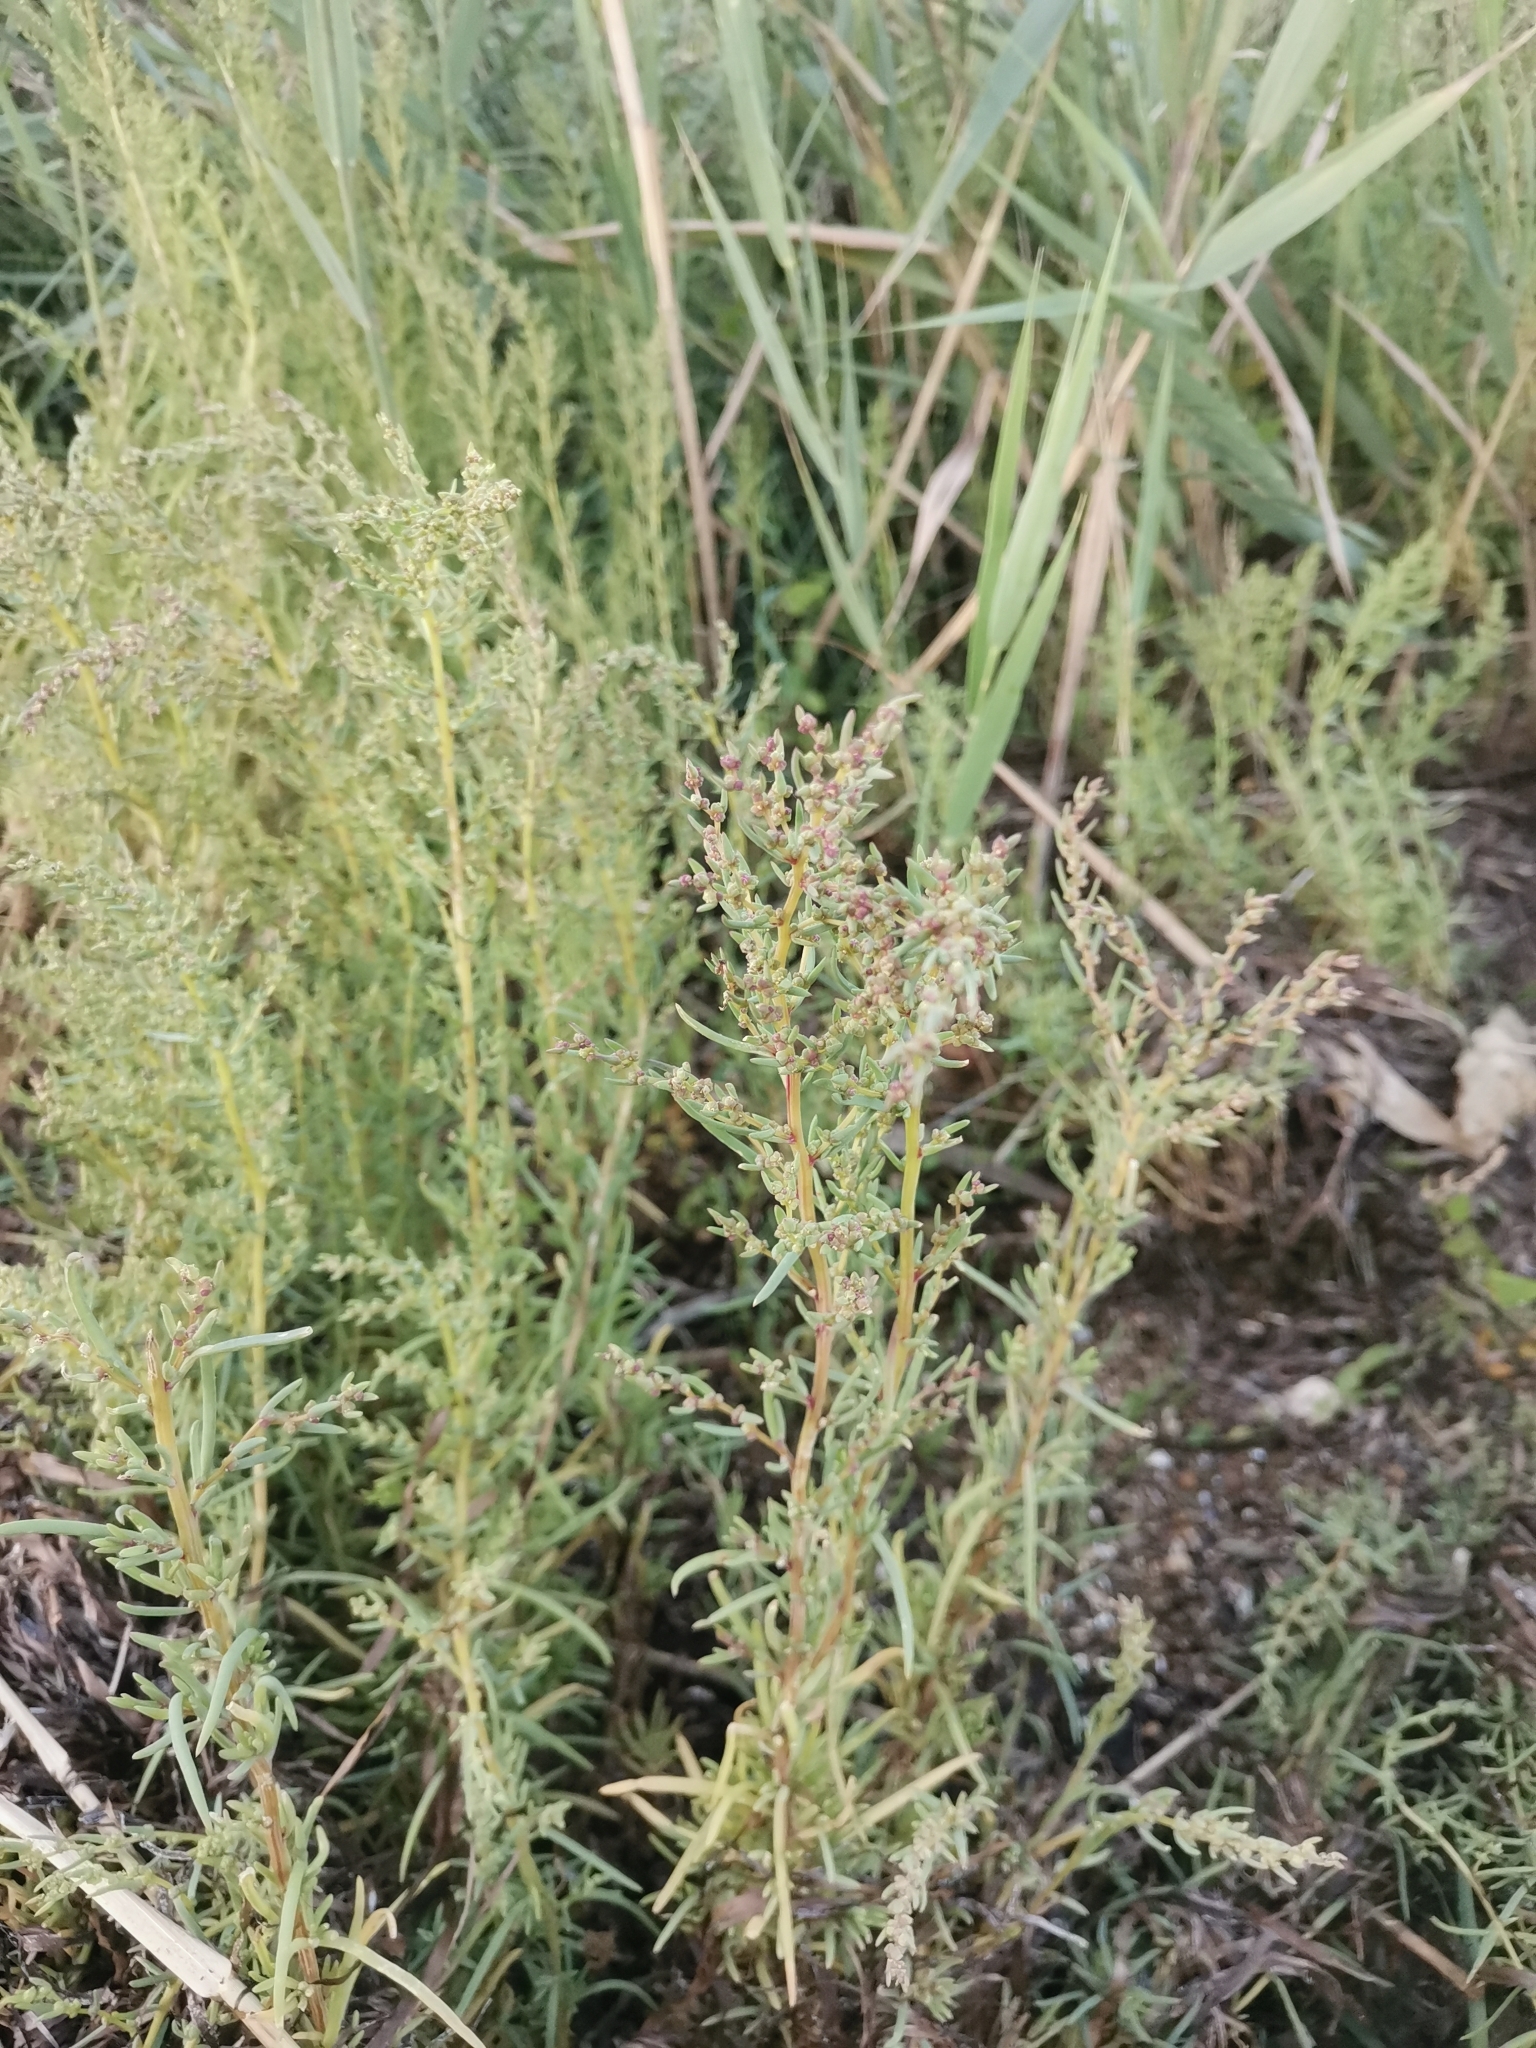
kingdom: Plantae
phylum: Tracheophyta
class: Magnoliopsida
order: Caryophyllales
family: Amaranthaceae
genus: Suaeda
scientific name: Suaeda maritima
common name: Annual sea-blite
